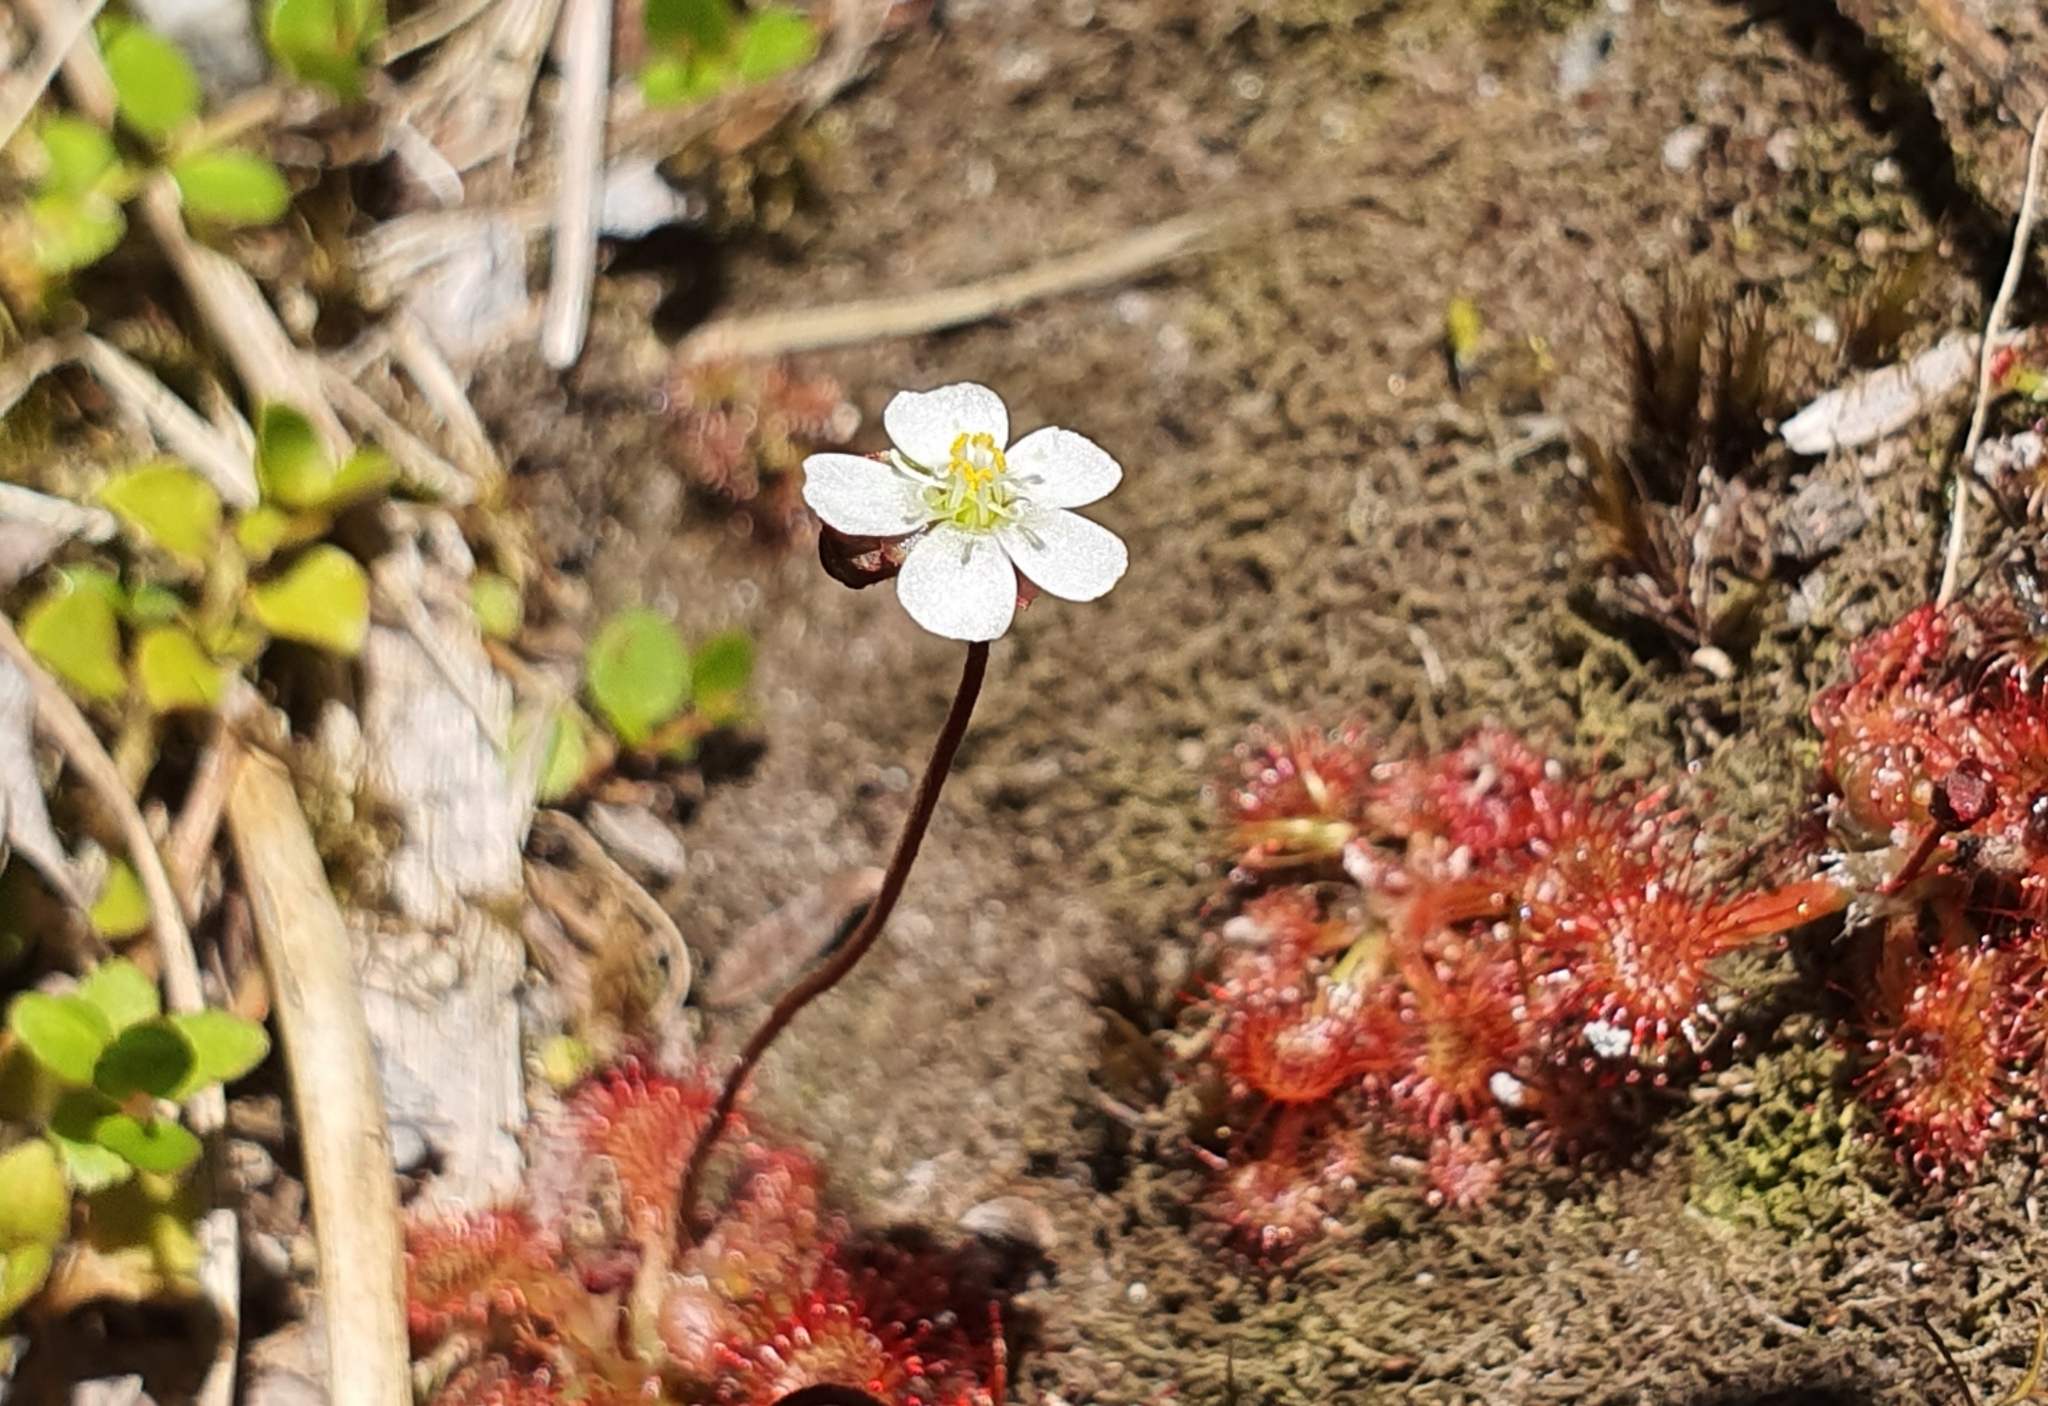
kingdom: Plantae
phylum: Tracheophyta
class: Magnoliopsida
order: Caryophyllales
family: Droseraceae
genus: Drosera
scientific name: Drosera spatulata
